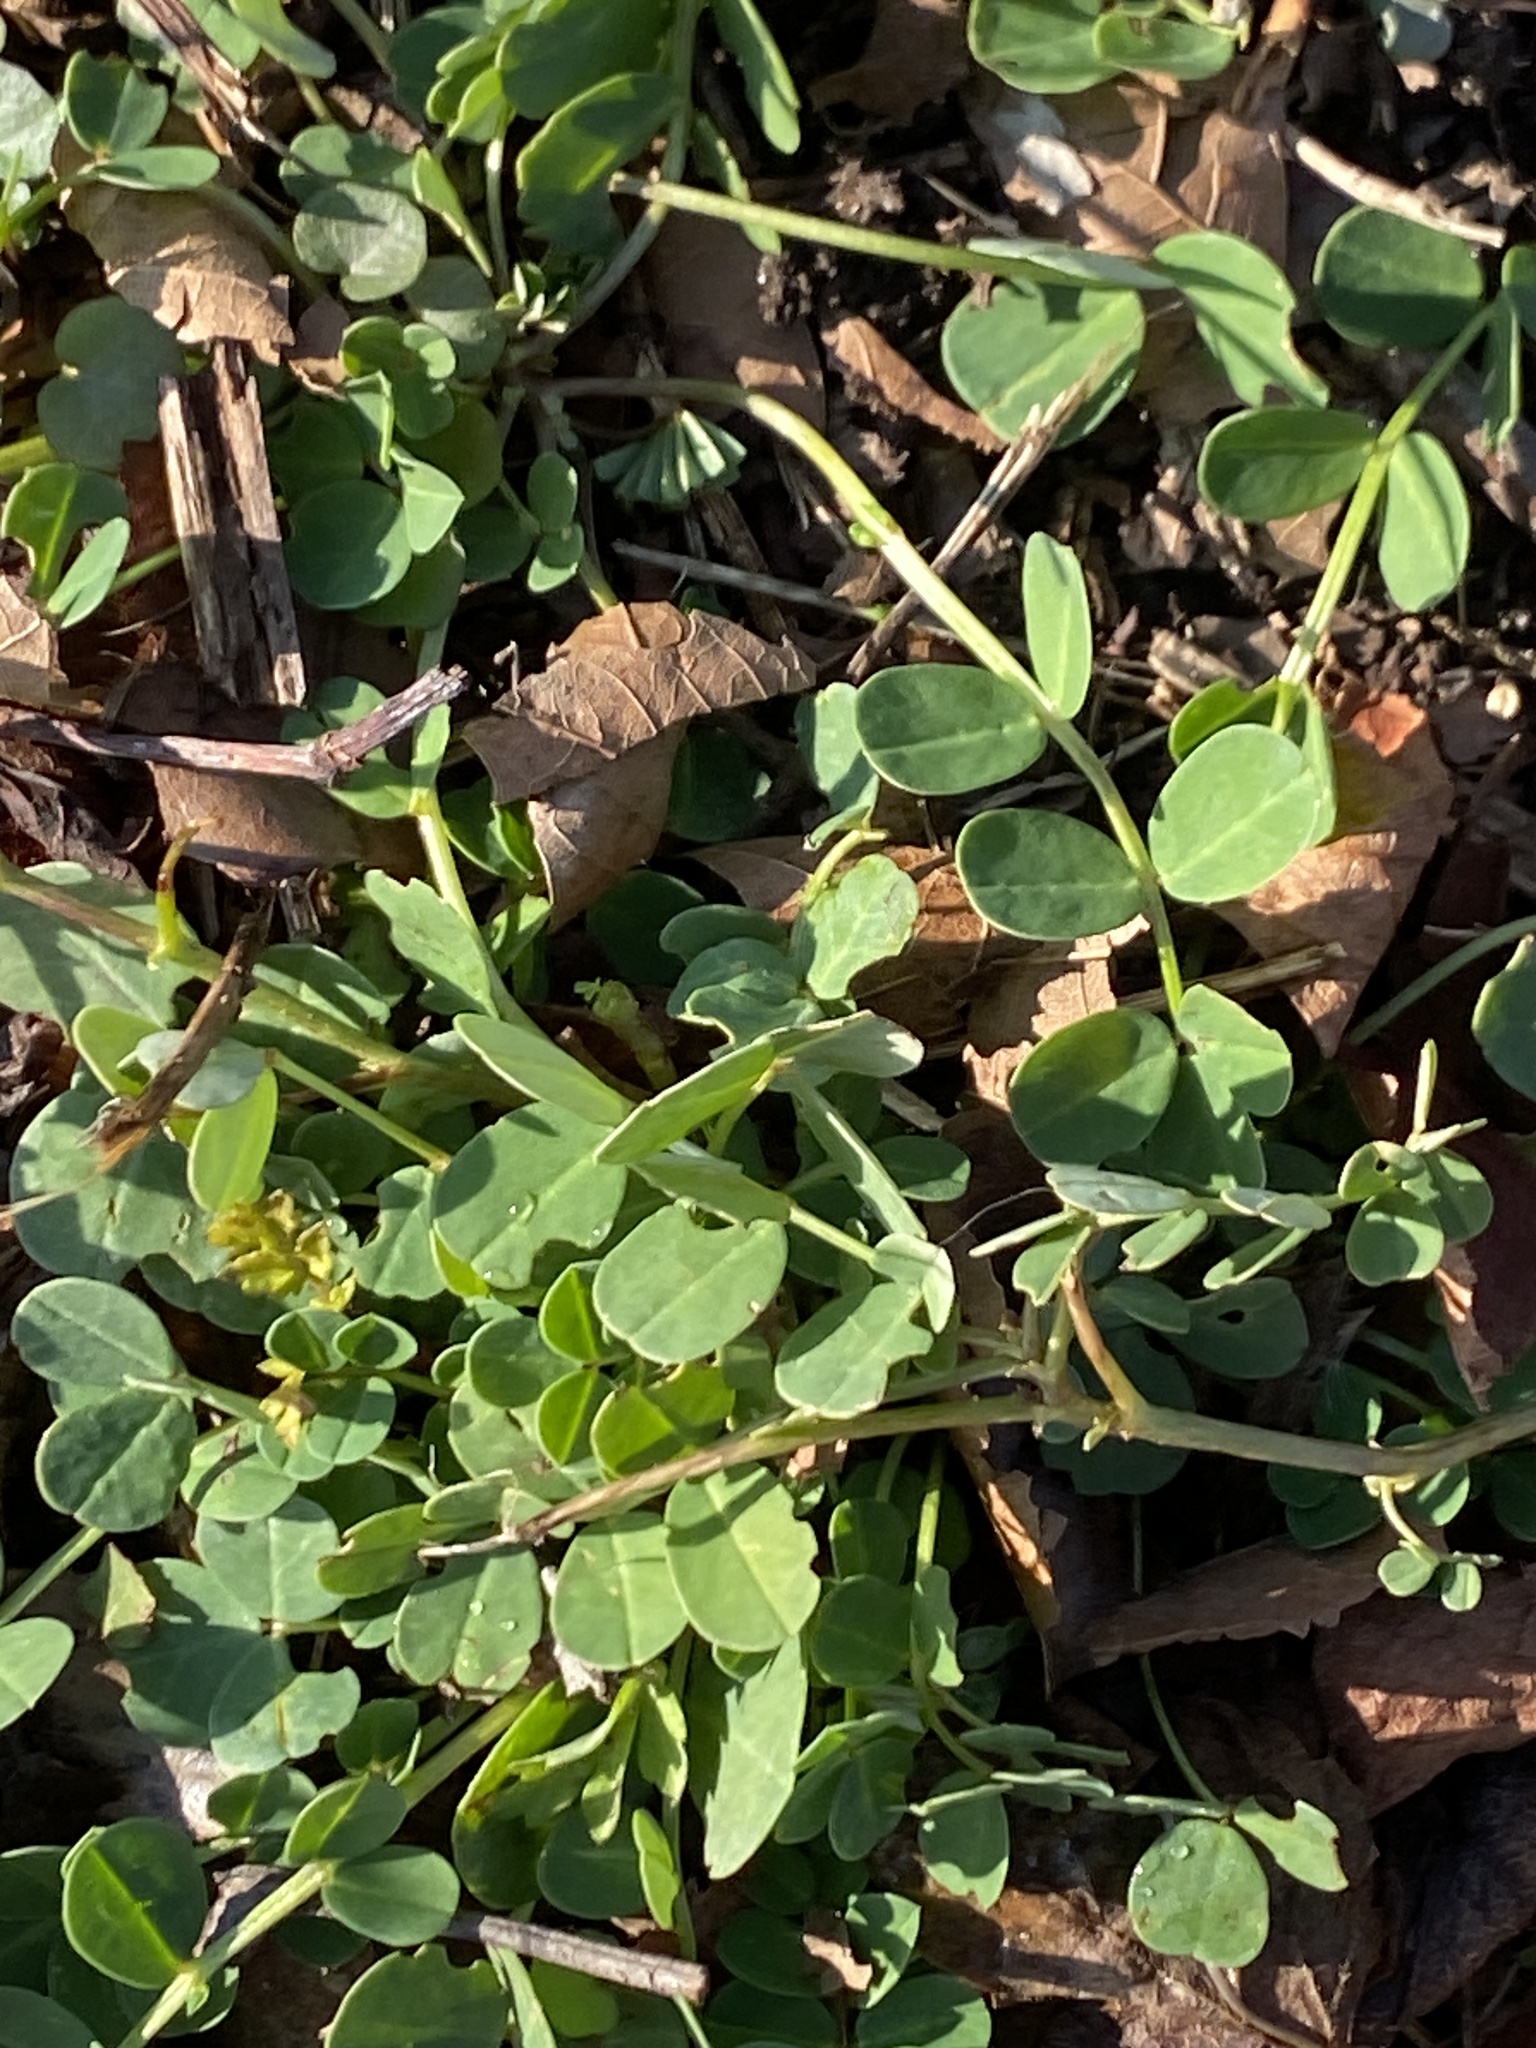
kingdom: Plantae
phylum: Tracheophyta
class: Magnoliopsida
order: Fabales
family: Fabaceae
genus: Coronilla
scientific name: Coronilla varia
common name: Crownvetch
